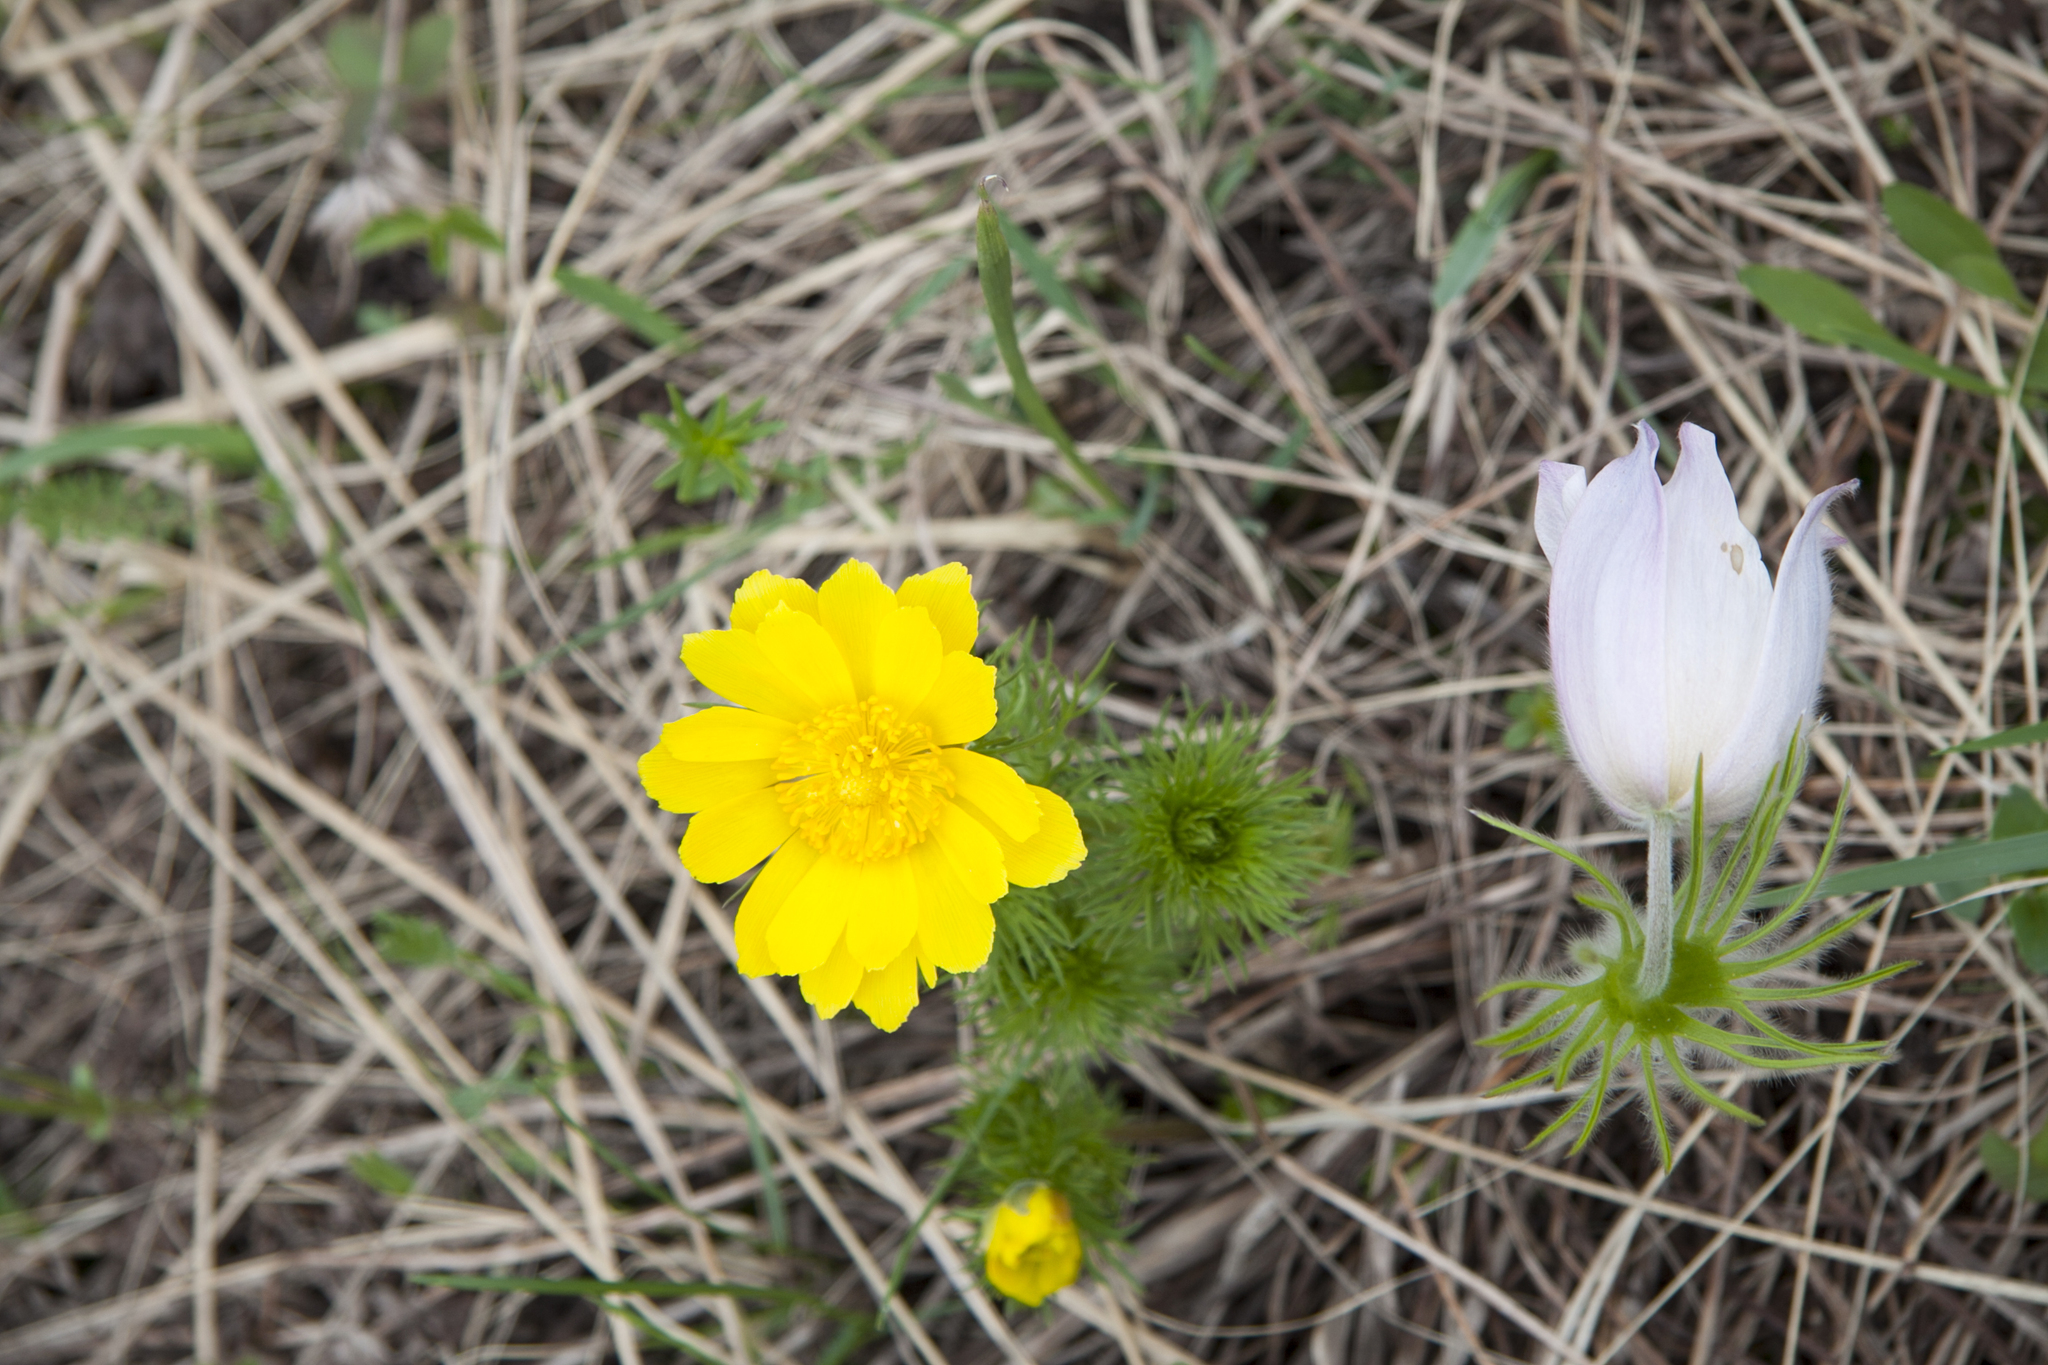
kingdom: Plantae
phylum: Tracheophyta
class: Magnoliopsida
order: Ranunculales
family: Ranunculaceae
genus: Adonis
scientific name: Adonis vernalis
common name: Yellow pheasants-eye
